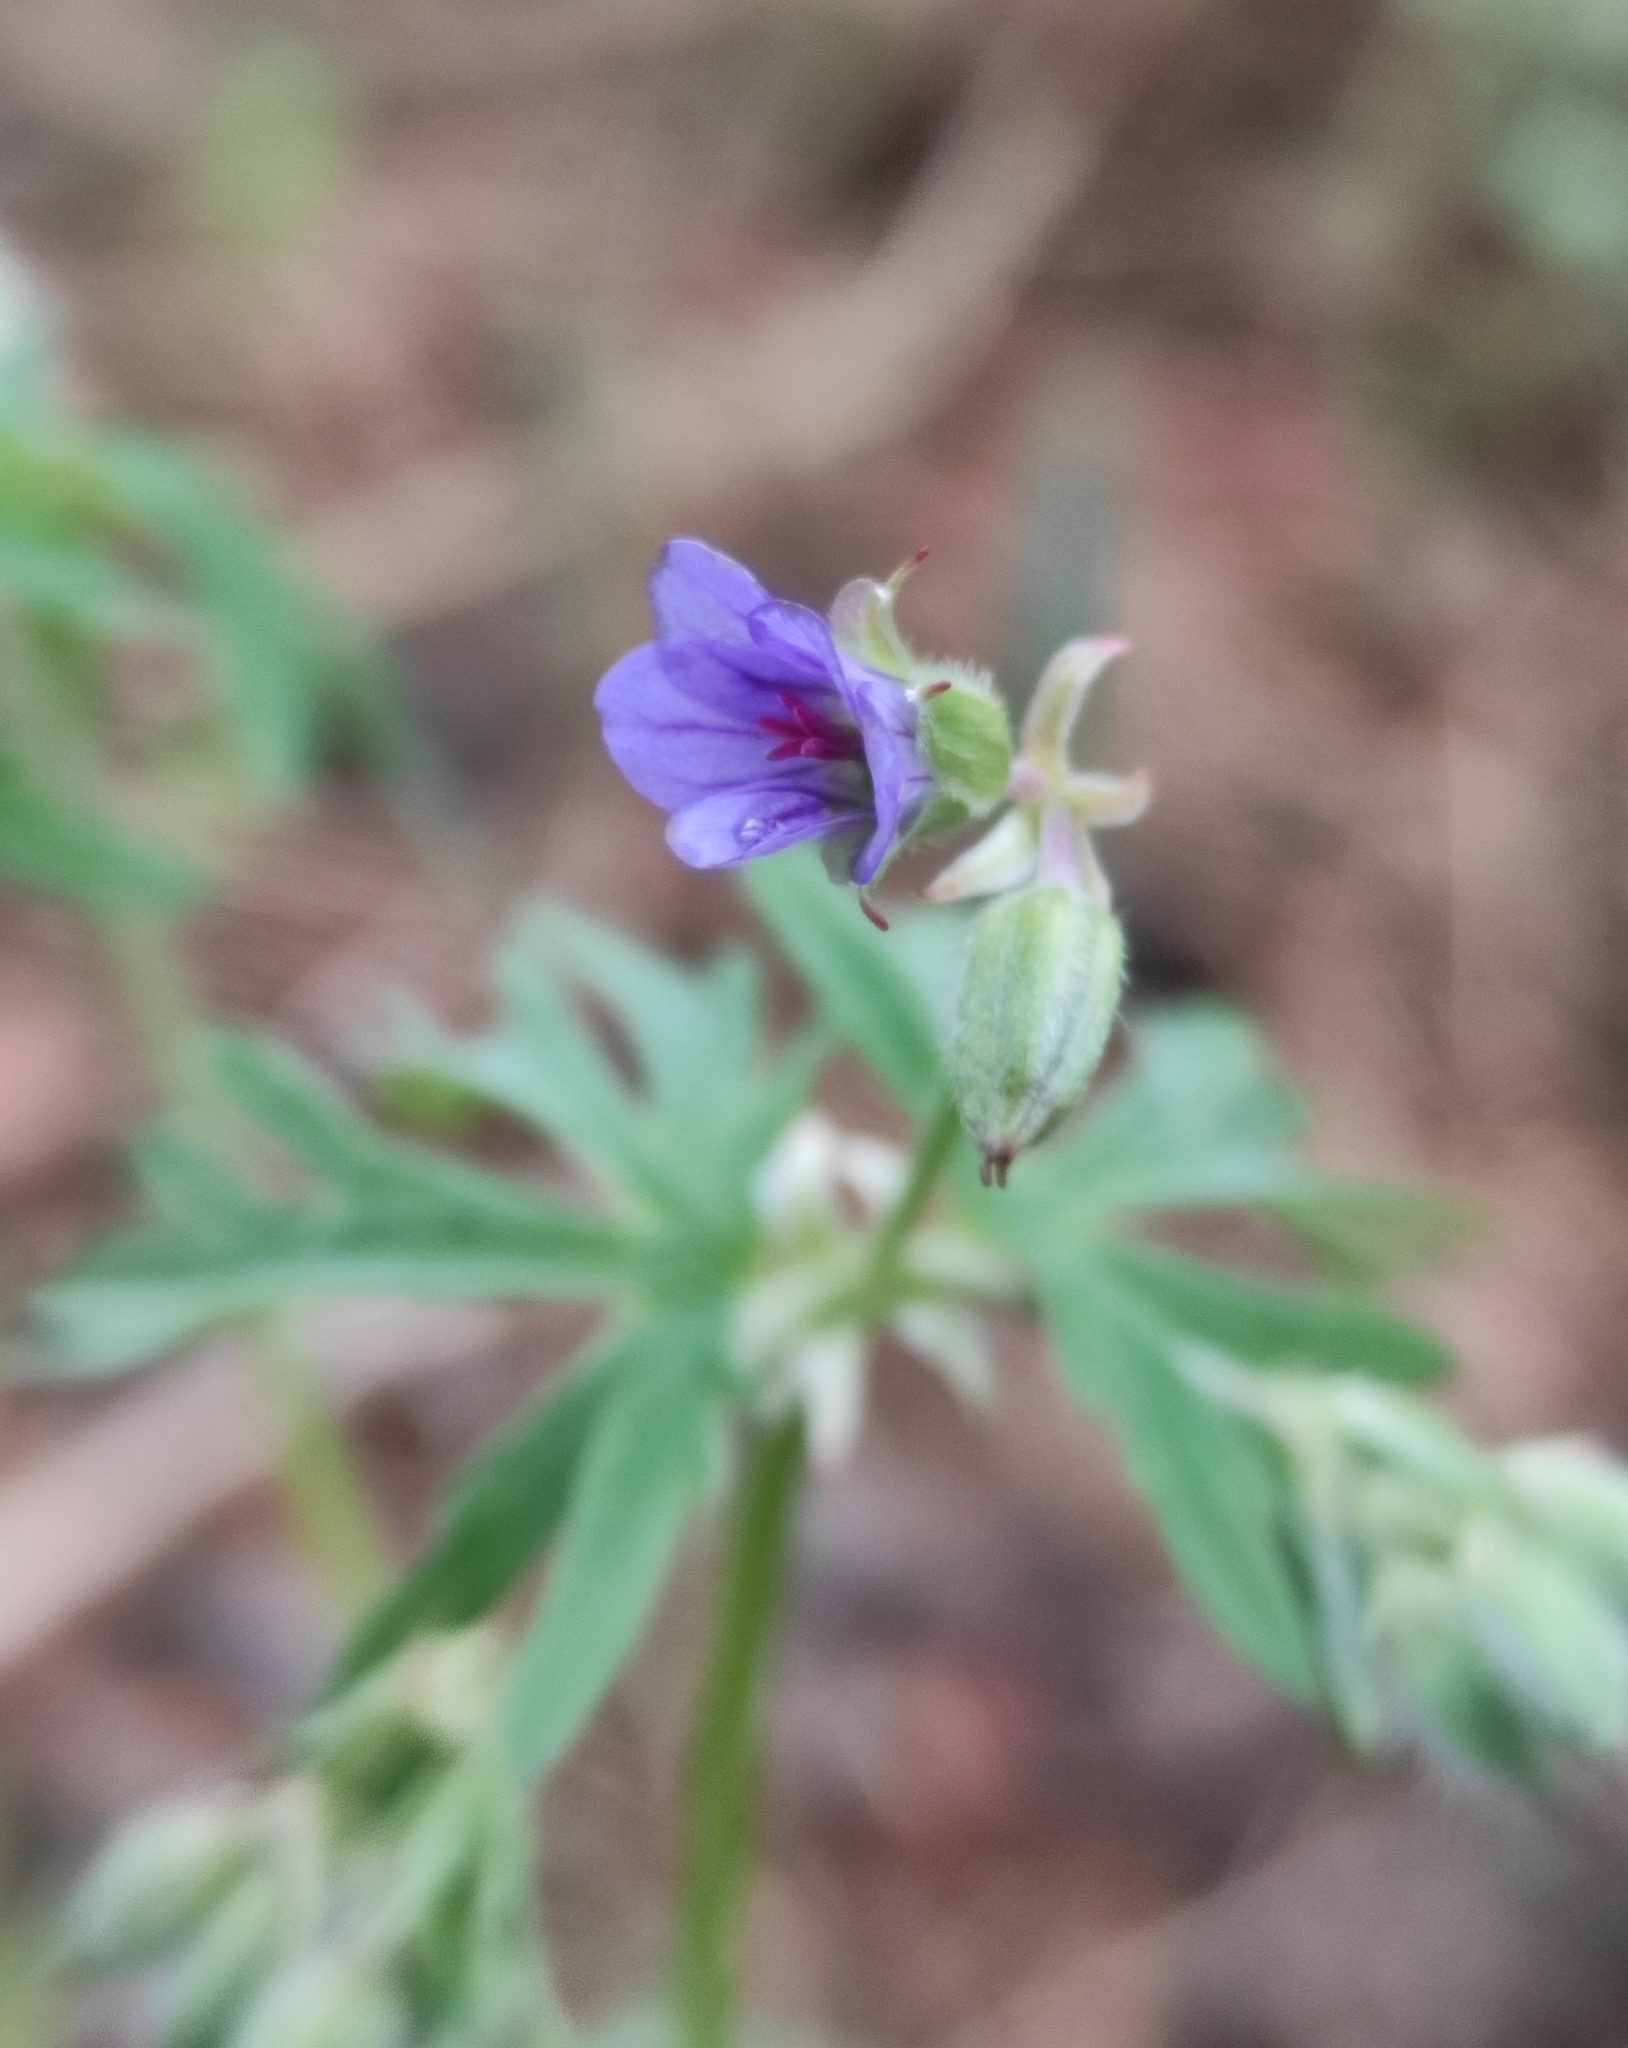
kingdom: Plantae
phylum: Tracheophyta
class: Magnoliopsida
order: Geraniales
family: Geraniaceae
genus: Geranium
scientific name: Geranium pseudosibiricum
